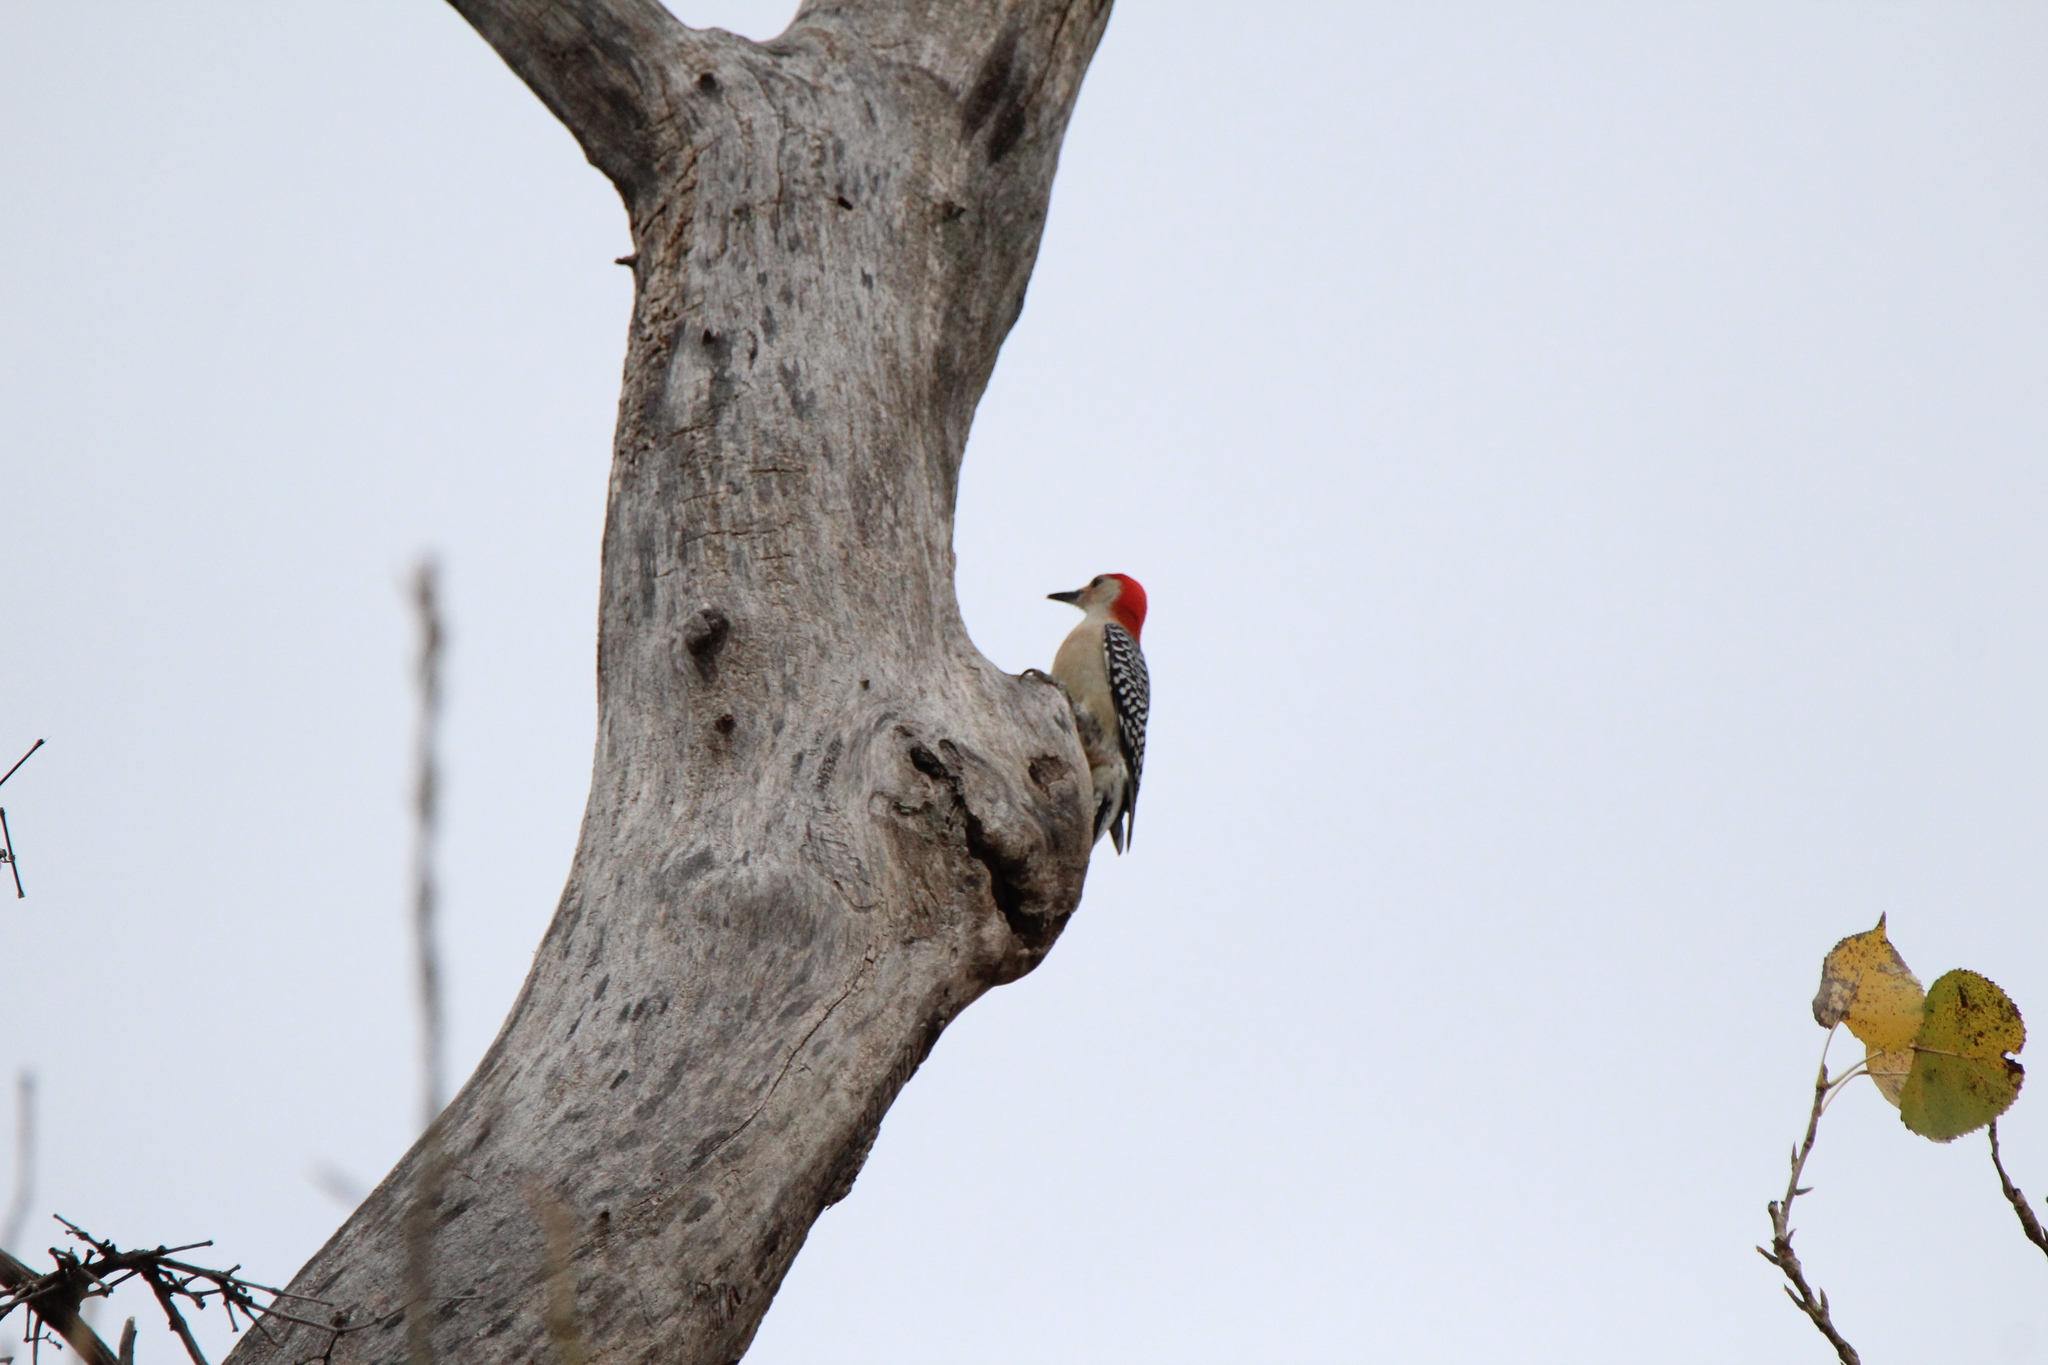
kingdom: Animalia
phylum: Chordata
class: Aves
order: Piciformes
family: Picidae
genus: Melanerpes
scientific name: Melanerpes carolinus
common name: Red-bellied woodpecker
